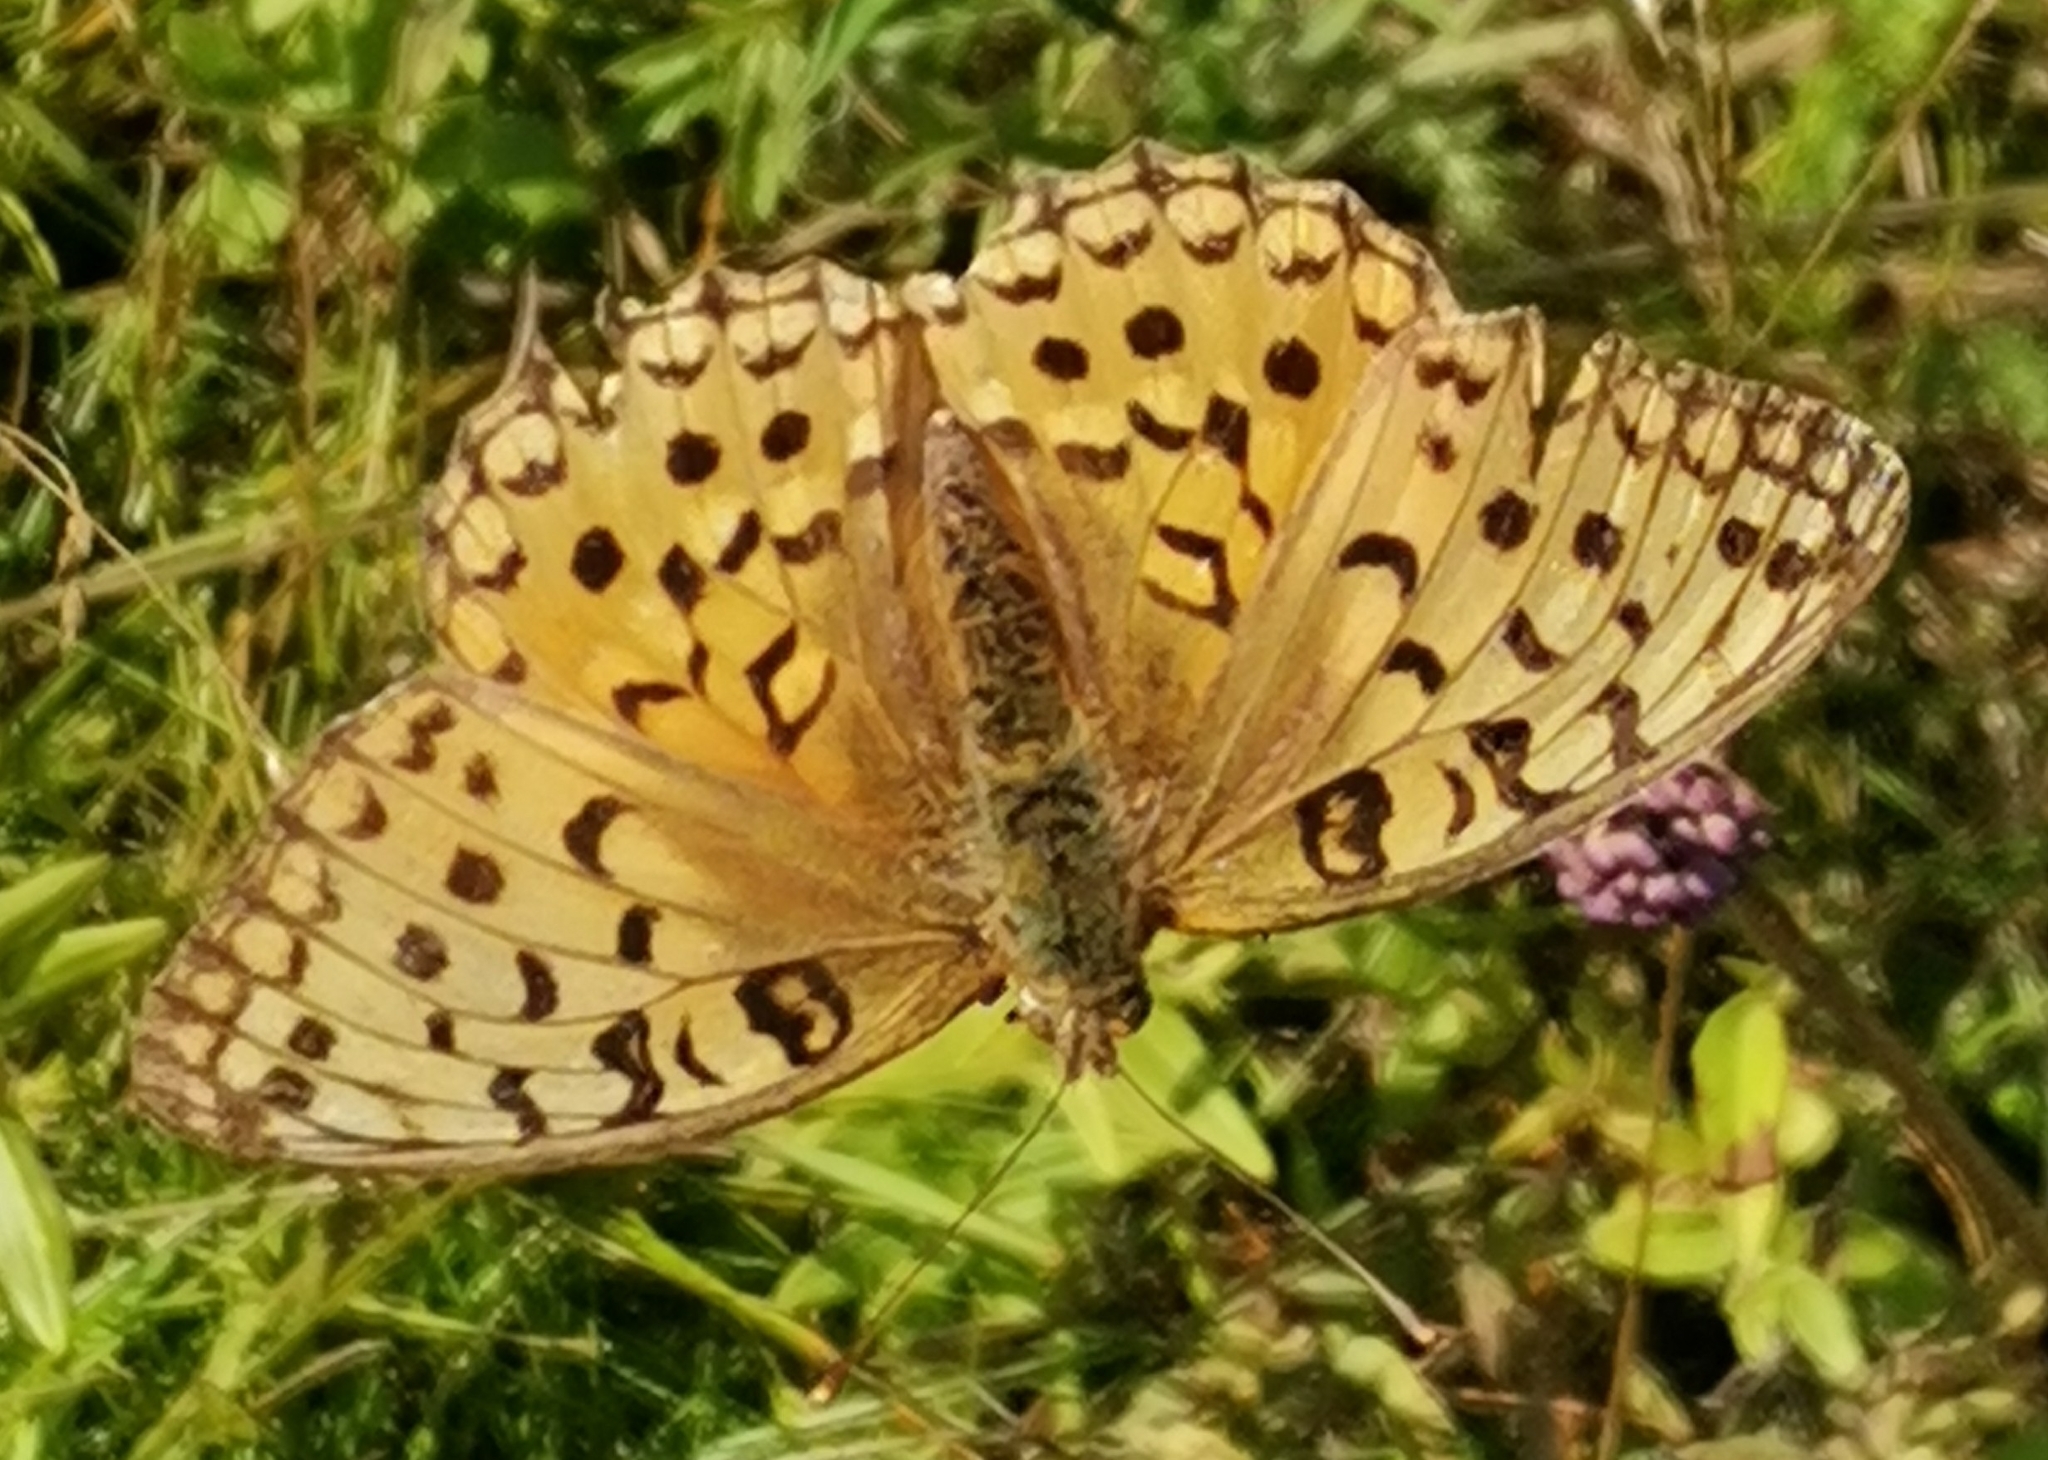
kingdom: Animalia
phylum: Arthropoda
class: Insecta
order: Lepidoptera
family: Nymphalidae
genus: Fabriciana
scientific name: Fabriciana adippe
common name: High brown fritillary
